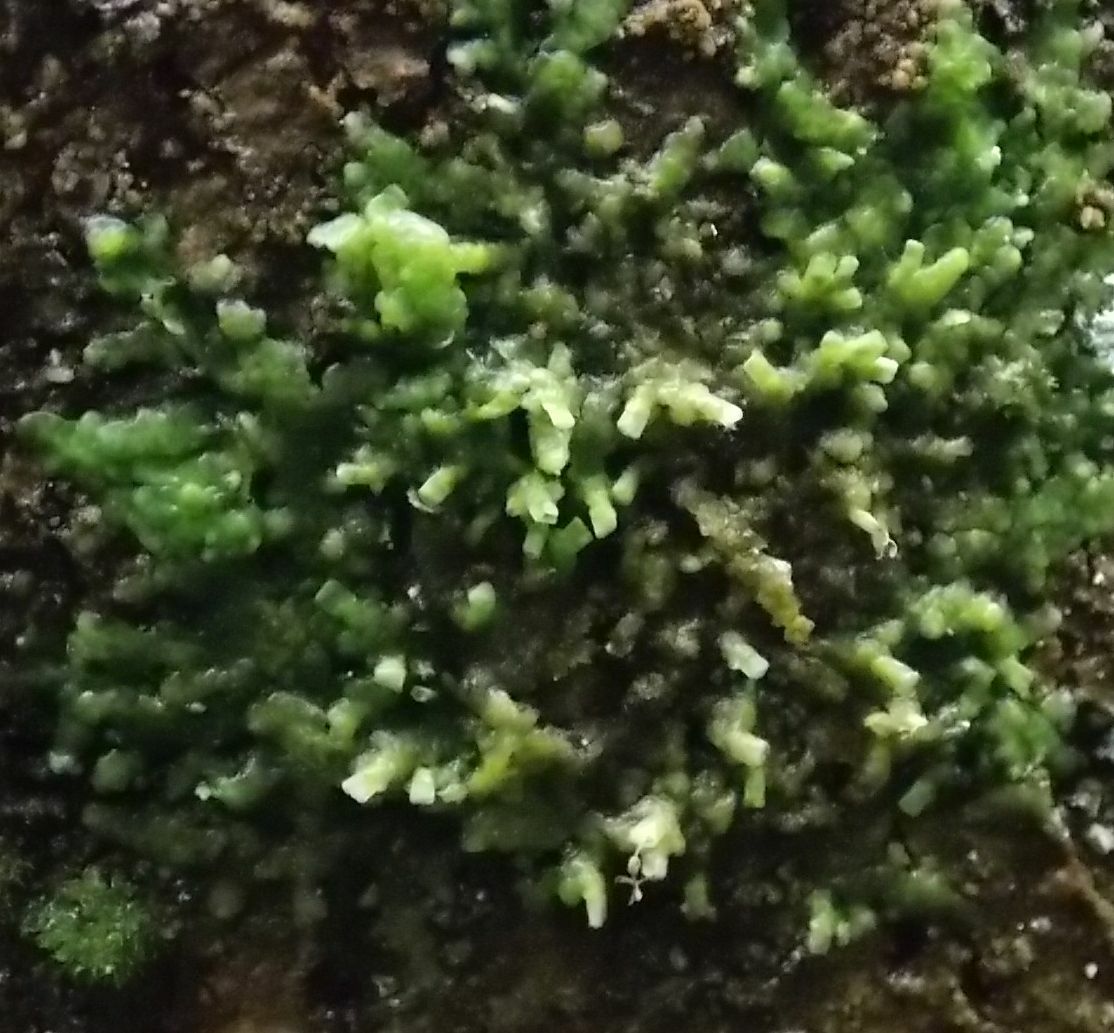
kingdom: Plantae
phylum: Marchantiophyta
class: Jungermanniopsida
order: Porellales
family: Radulaceae
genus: Radula
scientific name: Radula complanata
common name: Flat-leaved scalewort
